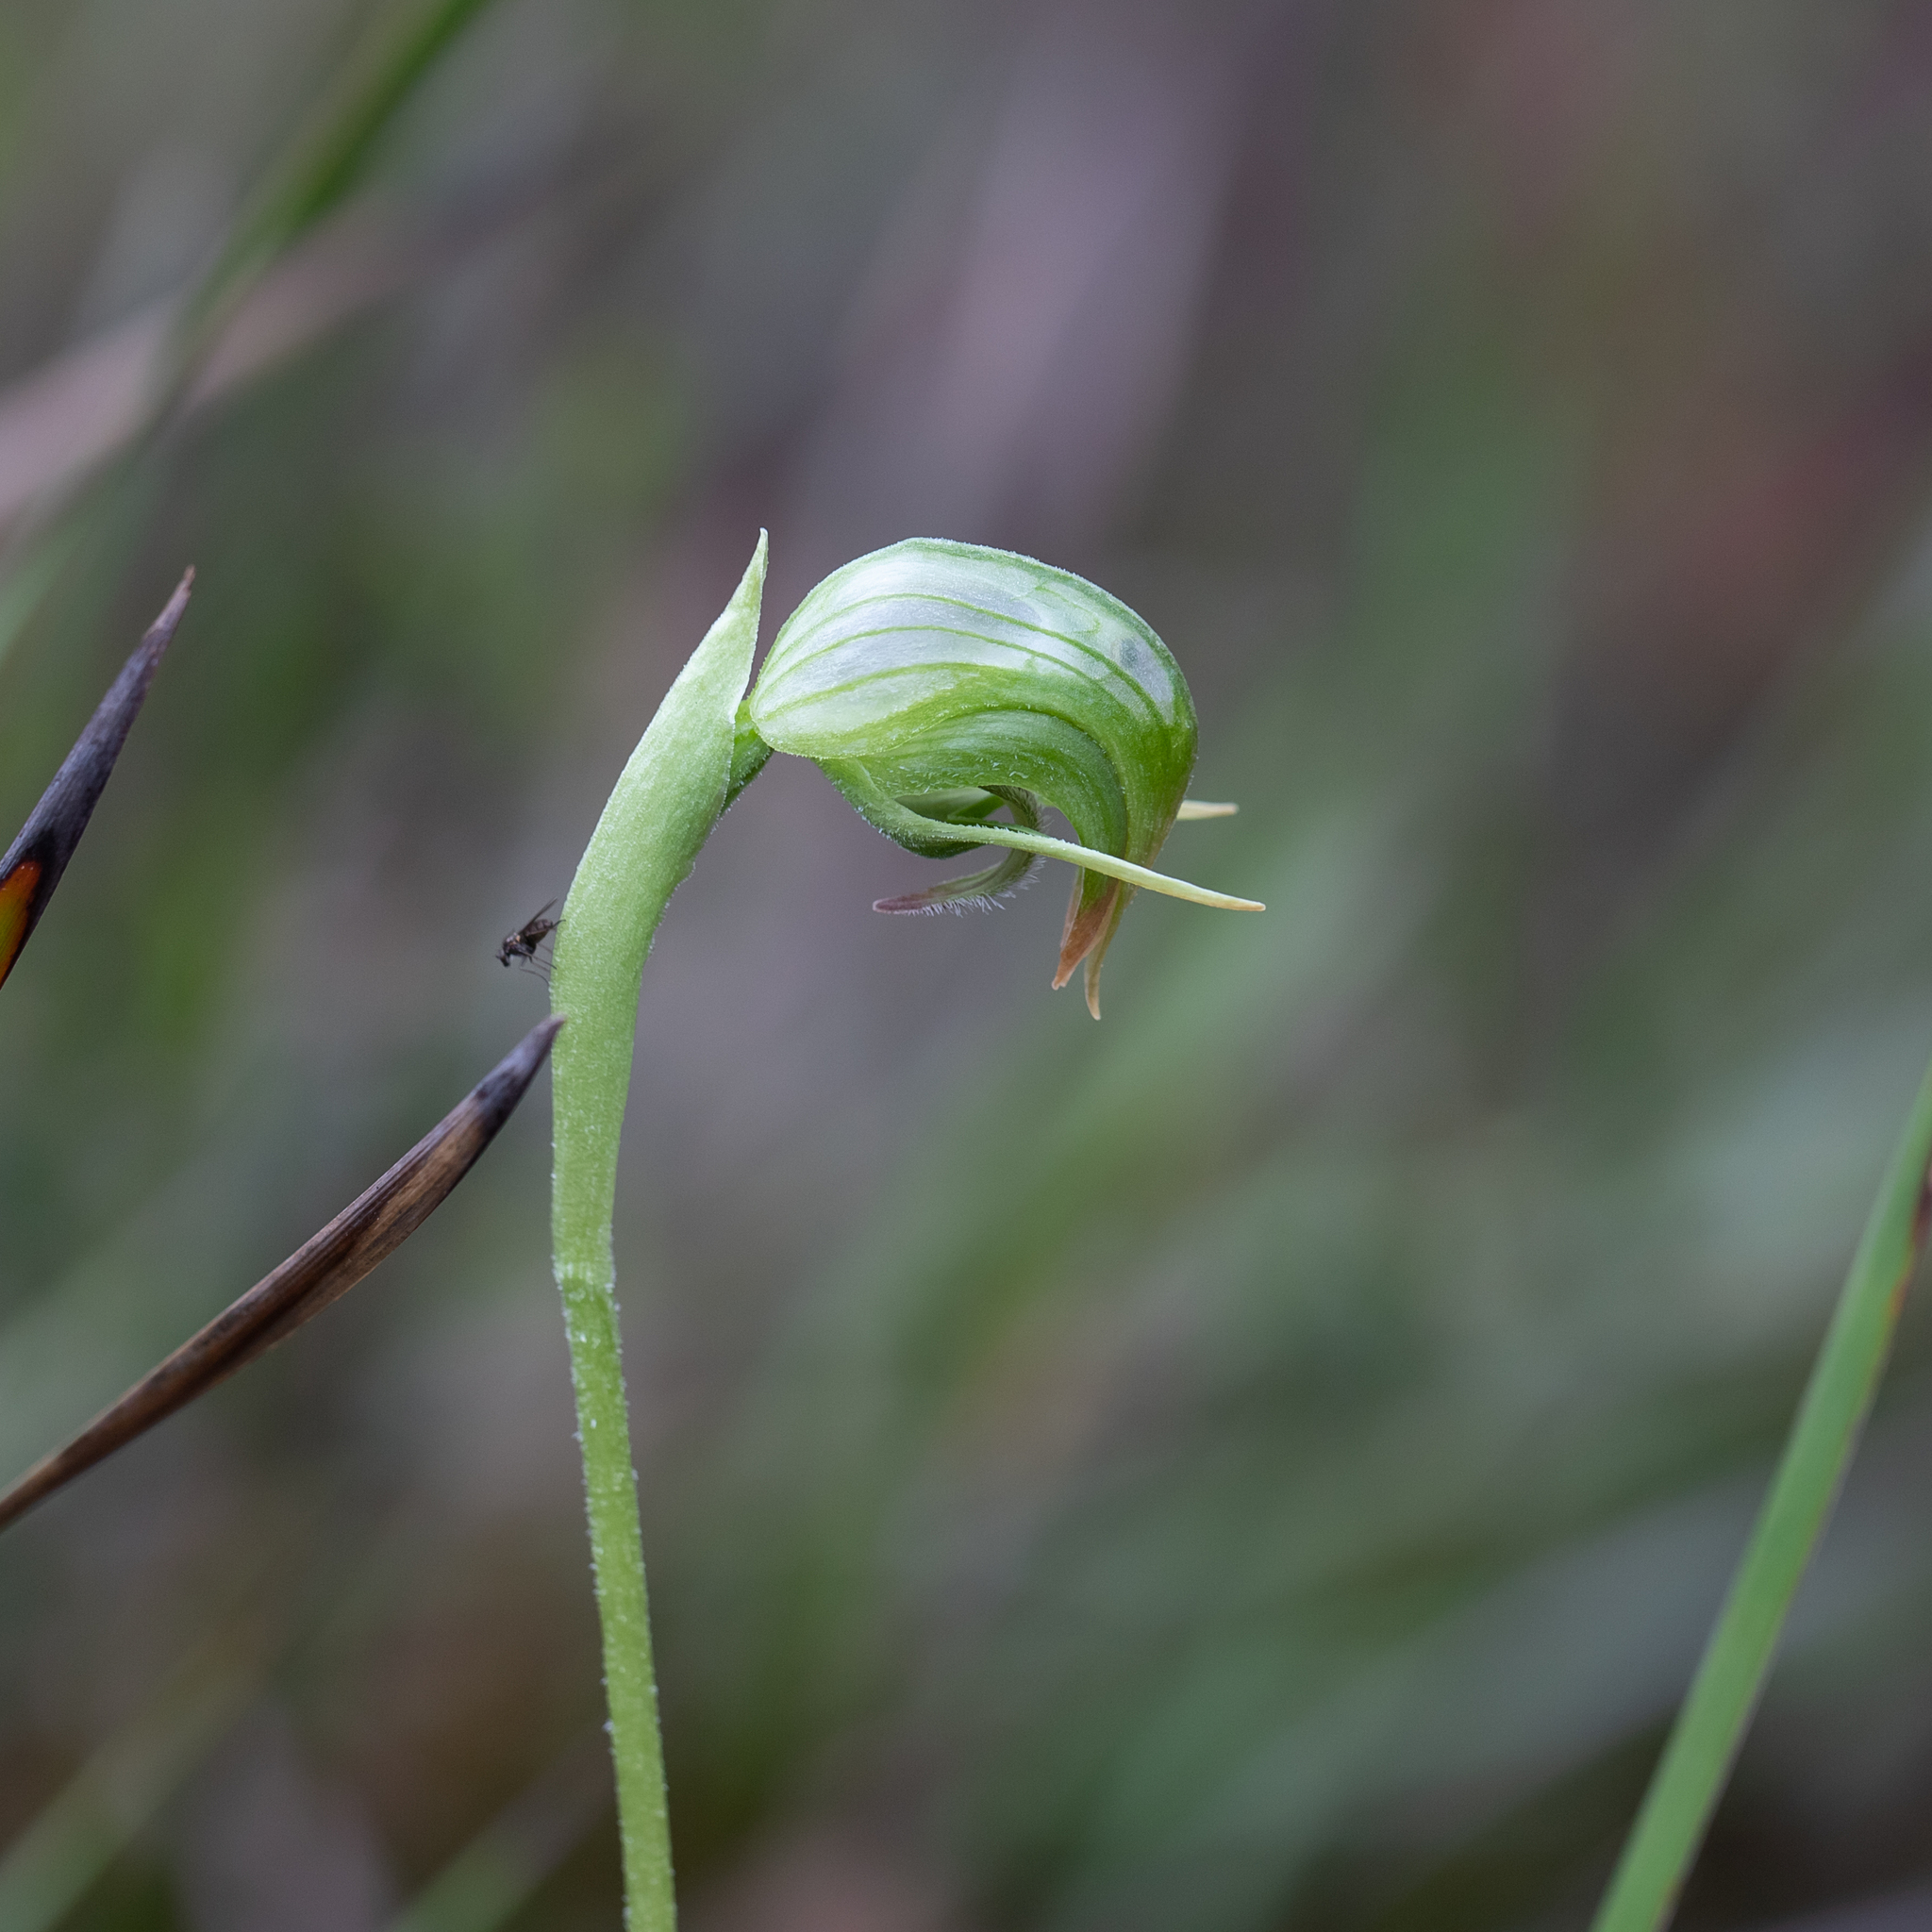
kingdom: Plantae
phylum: Tracheophyta
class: Liliopsida
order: Asparagales
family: Orchidaceae
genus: Pterostylis
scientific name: Pterostylis nutans
